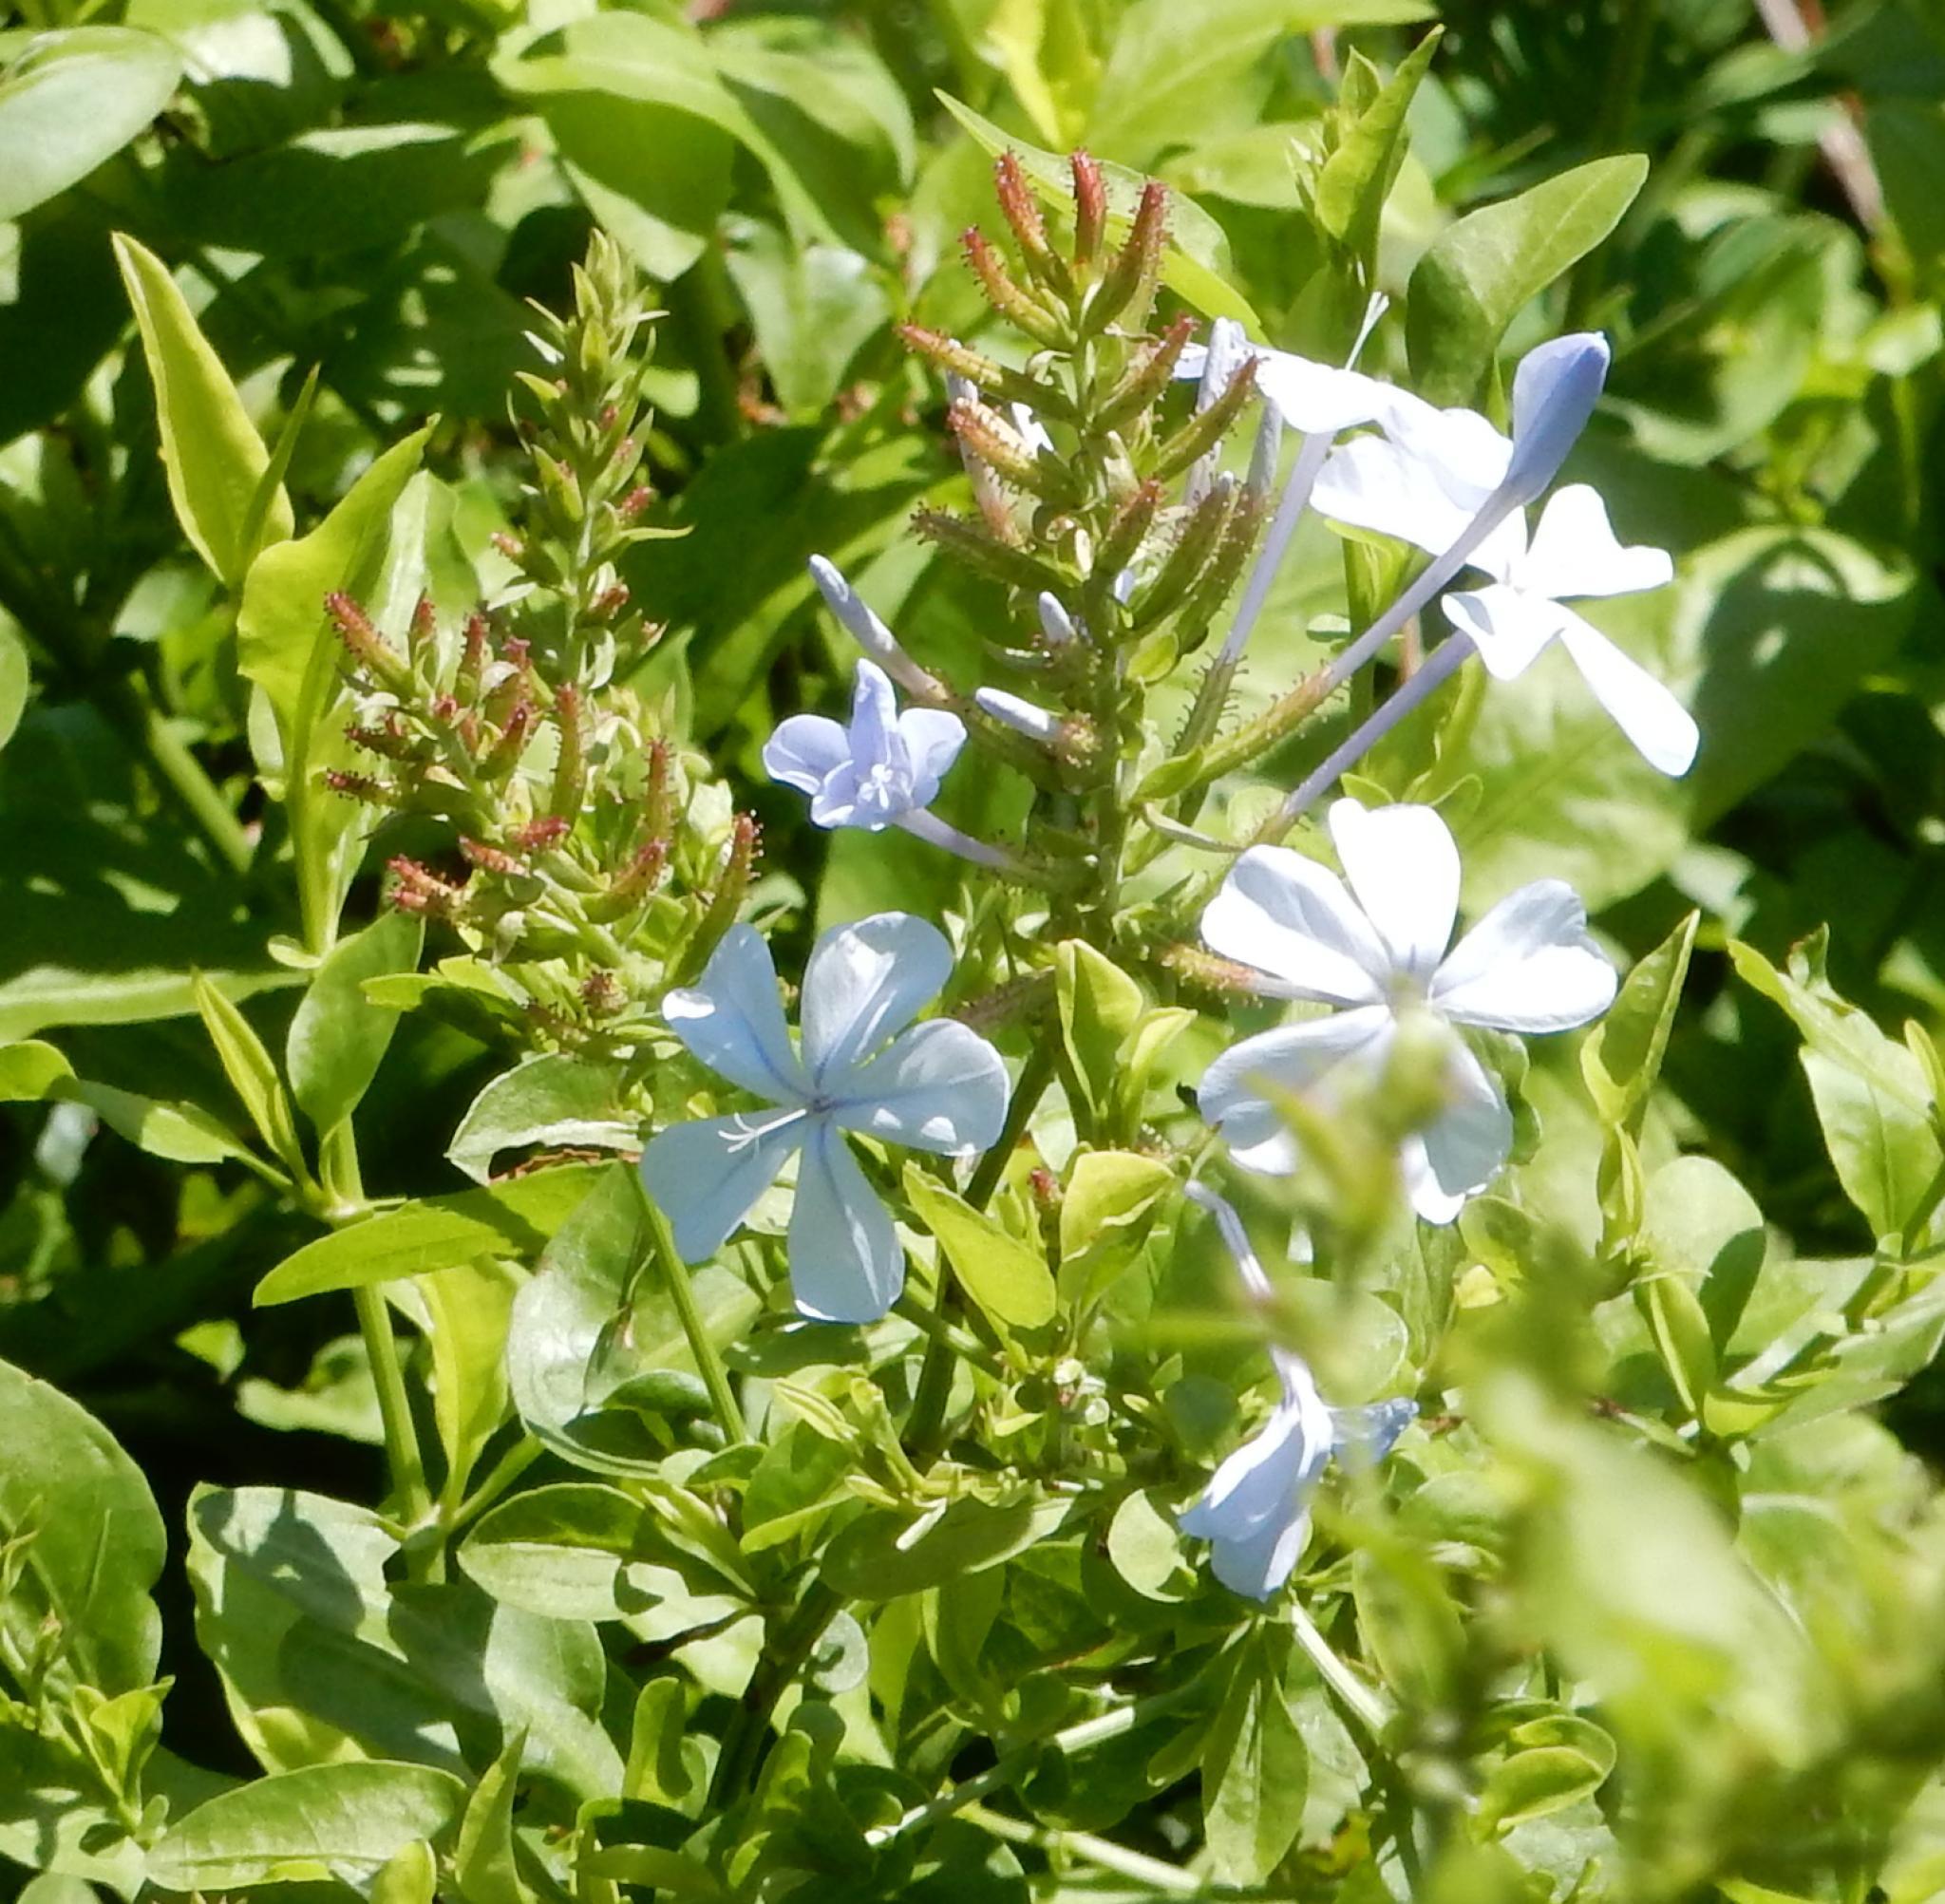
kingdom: Plantae
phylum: Tracheophyta
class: Magnoliopsida
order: Caryophyllales
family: Plumbaginaceae
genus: Plumbago
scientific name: Plumbago auriculata
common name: Cape leadwort
